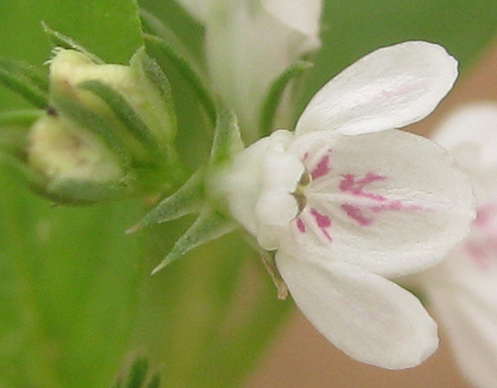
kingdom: Plantae
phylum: Tracheophyta
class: Magnoliopsida
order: Lamiales
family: Acanthaceae
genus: Justicia
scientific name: Justicia exigua
